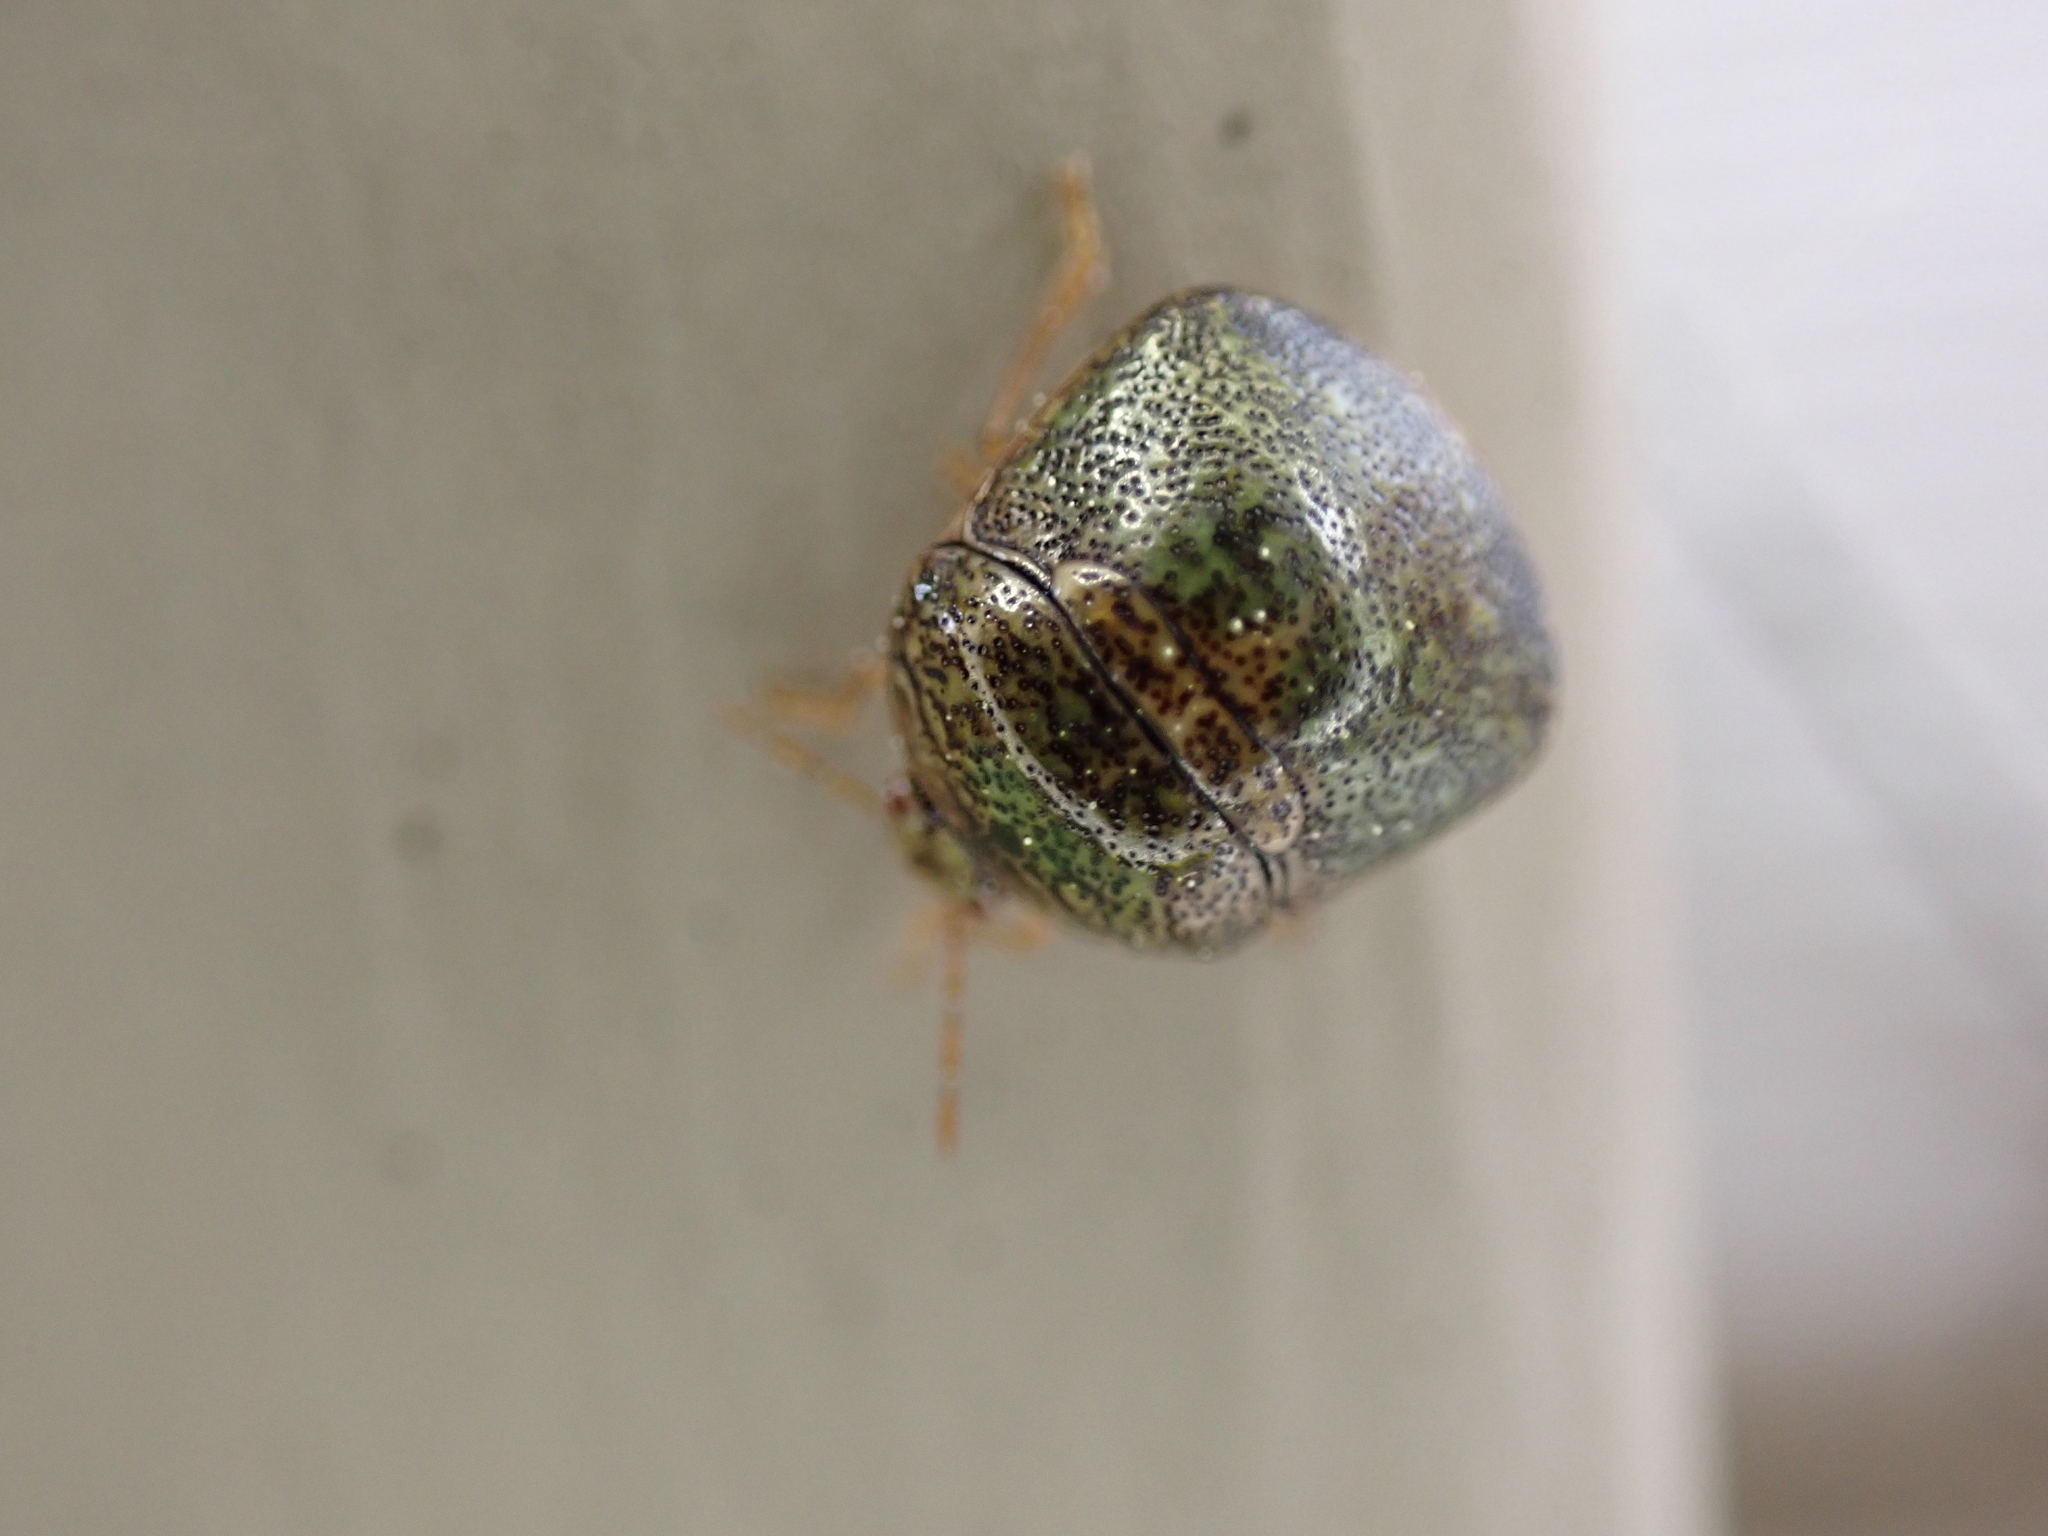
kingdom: Animalia
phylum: Arthropoda
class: Insecta
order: Hemiptera
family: Plataspidae
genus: Megacopta
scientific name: Megacopta cribraria
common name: Bean plataspid
